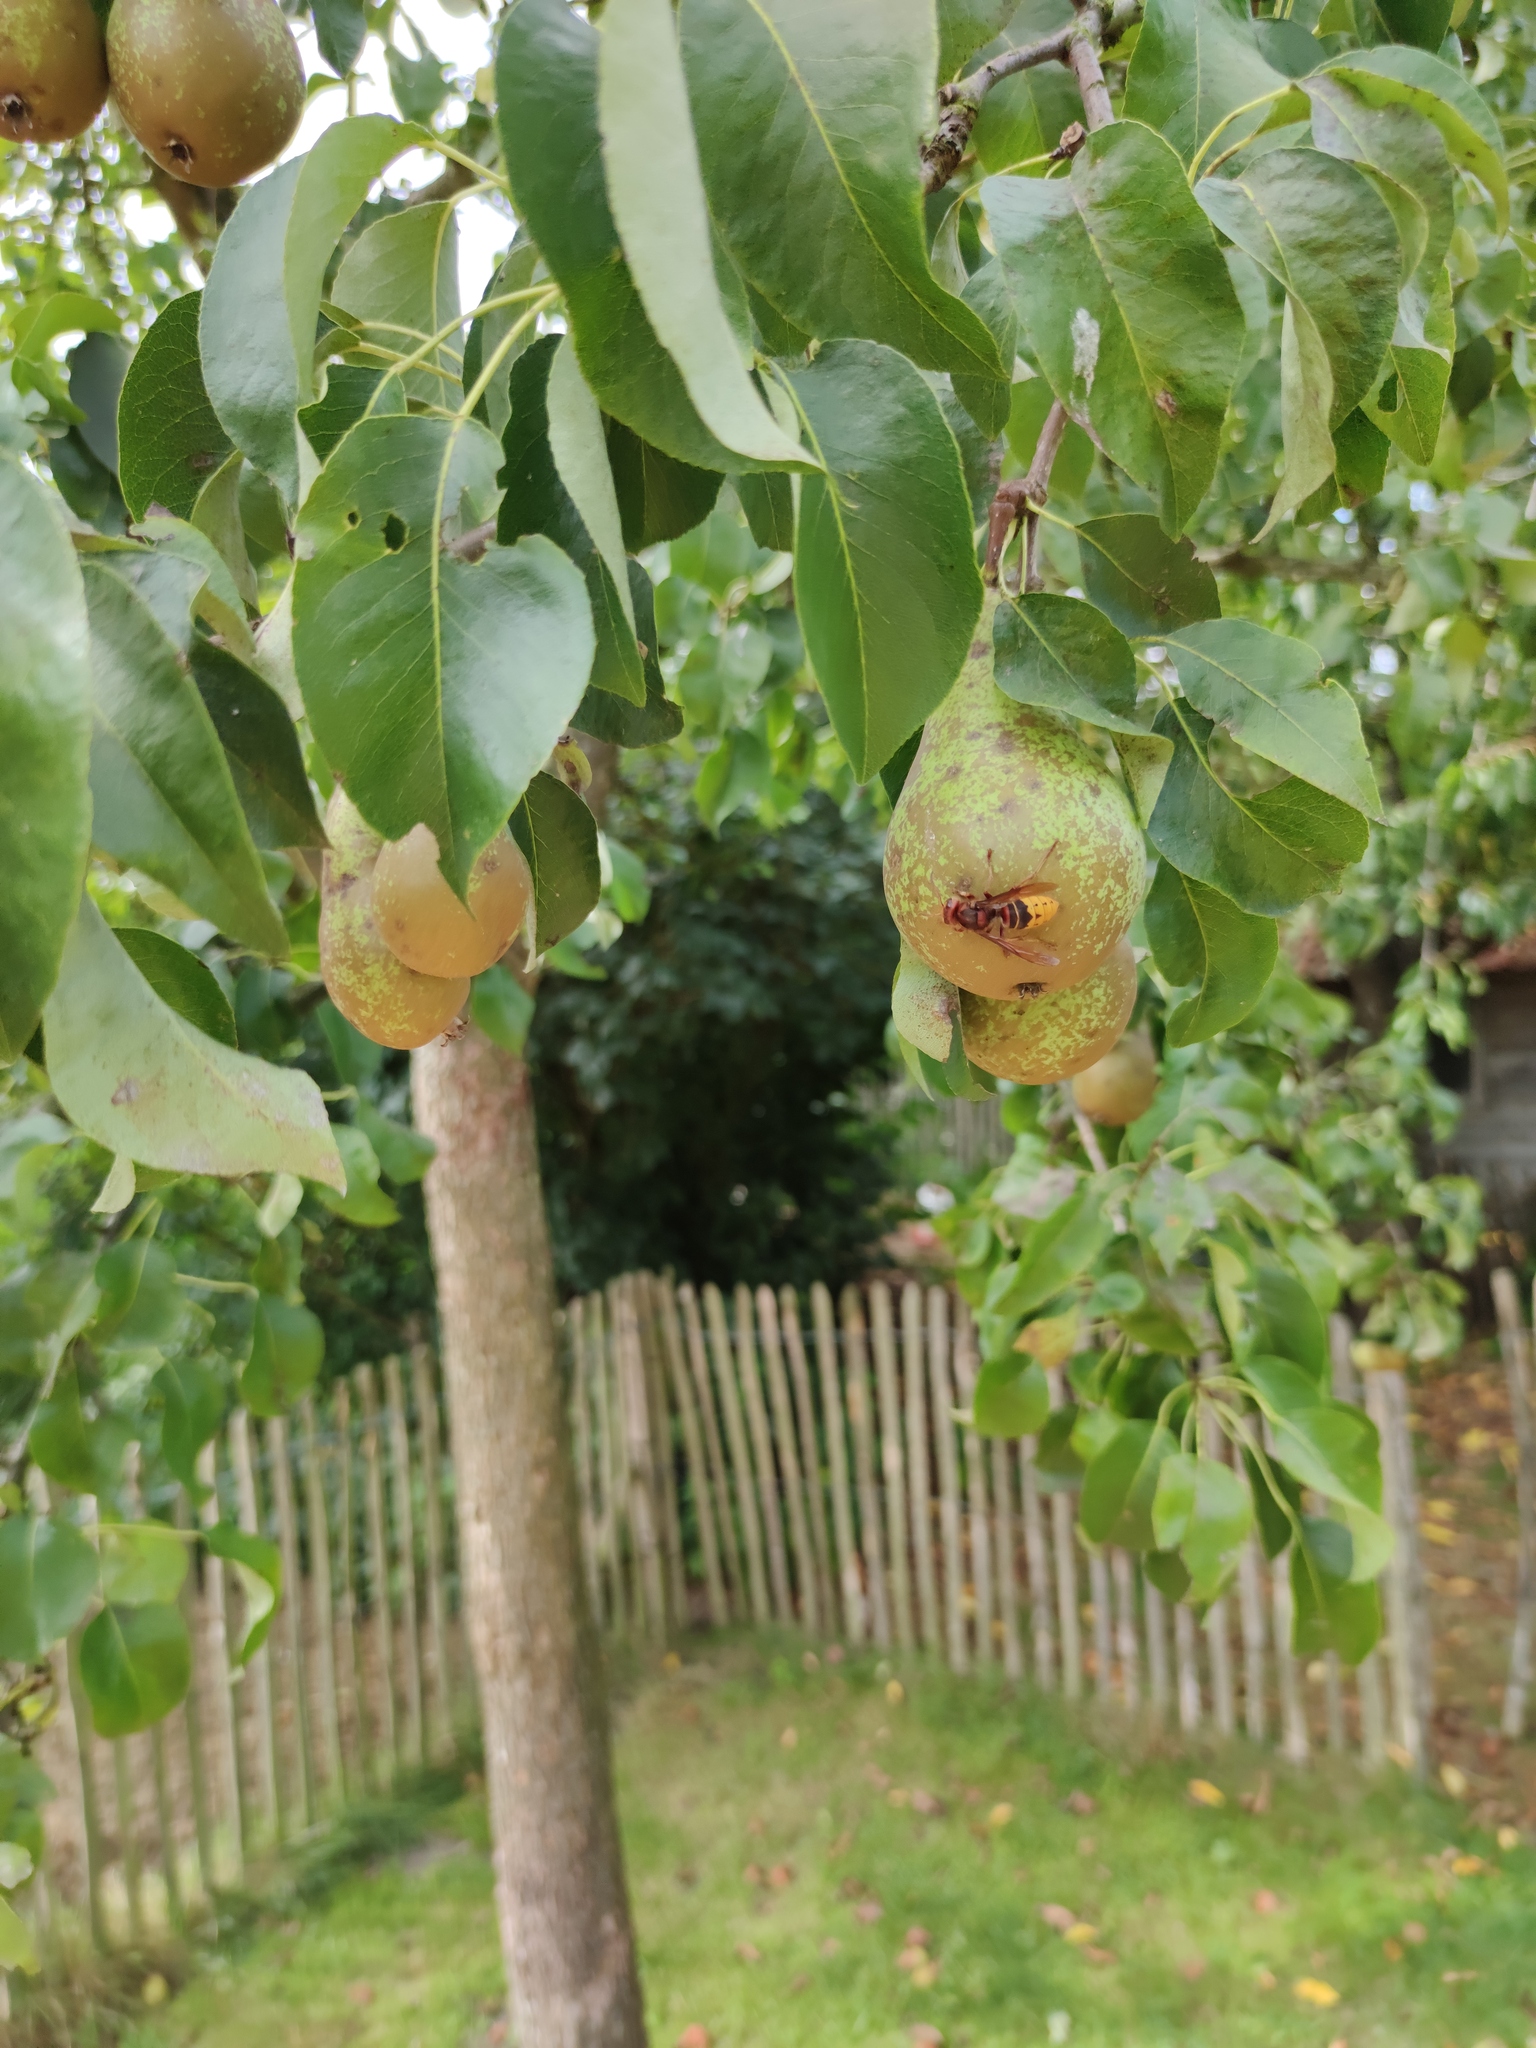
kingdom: Animalia
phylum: Arthropoda
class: Insecta
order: Hymenoptera
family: Vespidae
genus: Vespa
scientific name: Vespa crabro
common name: Hornet
